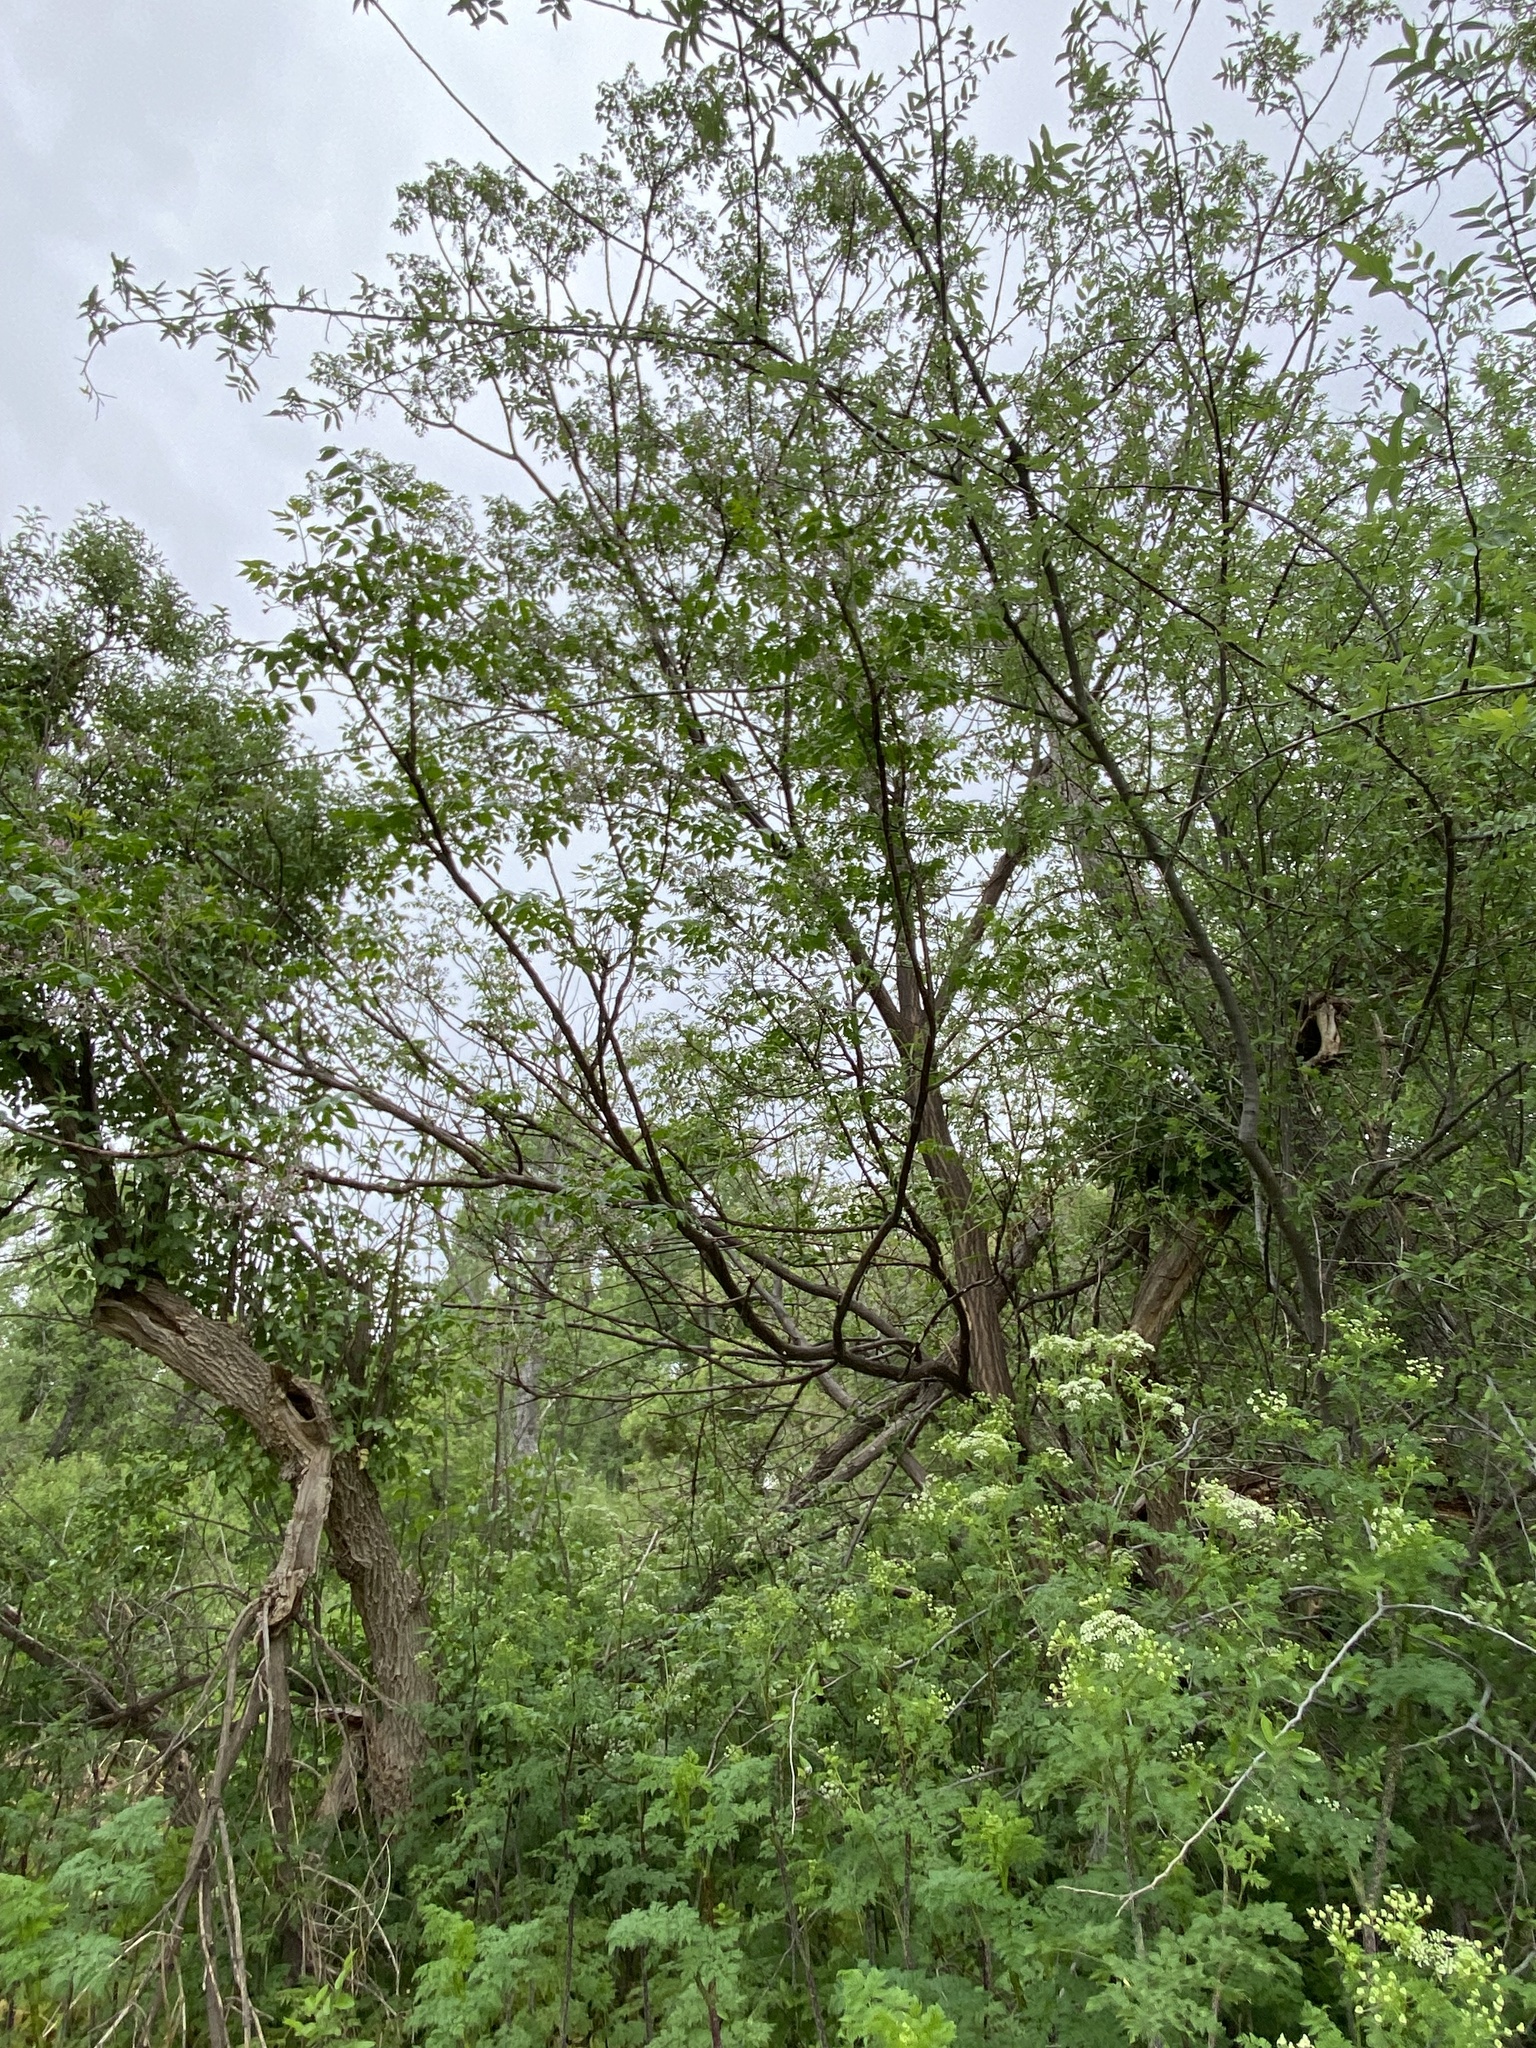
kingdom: Plantae
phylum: Tracheophyta
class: Magnoliopsida
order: Sapindales
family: Meliaceae
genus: Melia
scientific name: Melia azedarach
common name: Chinaberrytree
